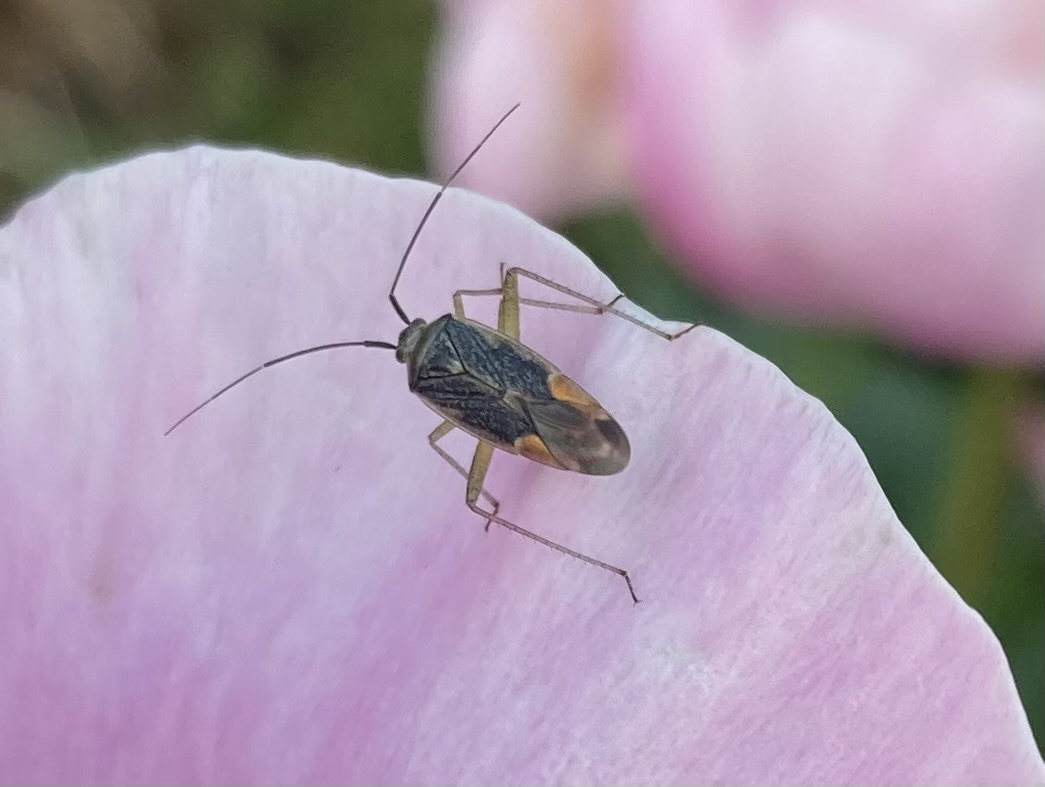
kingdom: Animalia
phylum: Arthropoda
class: Insecta
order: Hemiptera
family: Miridae
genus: Closterotomus
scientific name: Closterotomus trivialis
